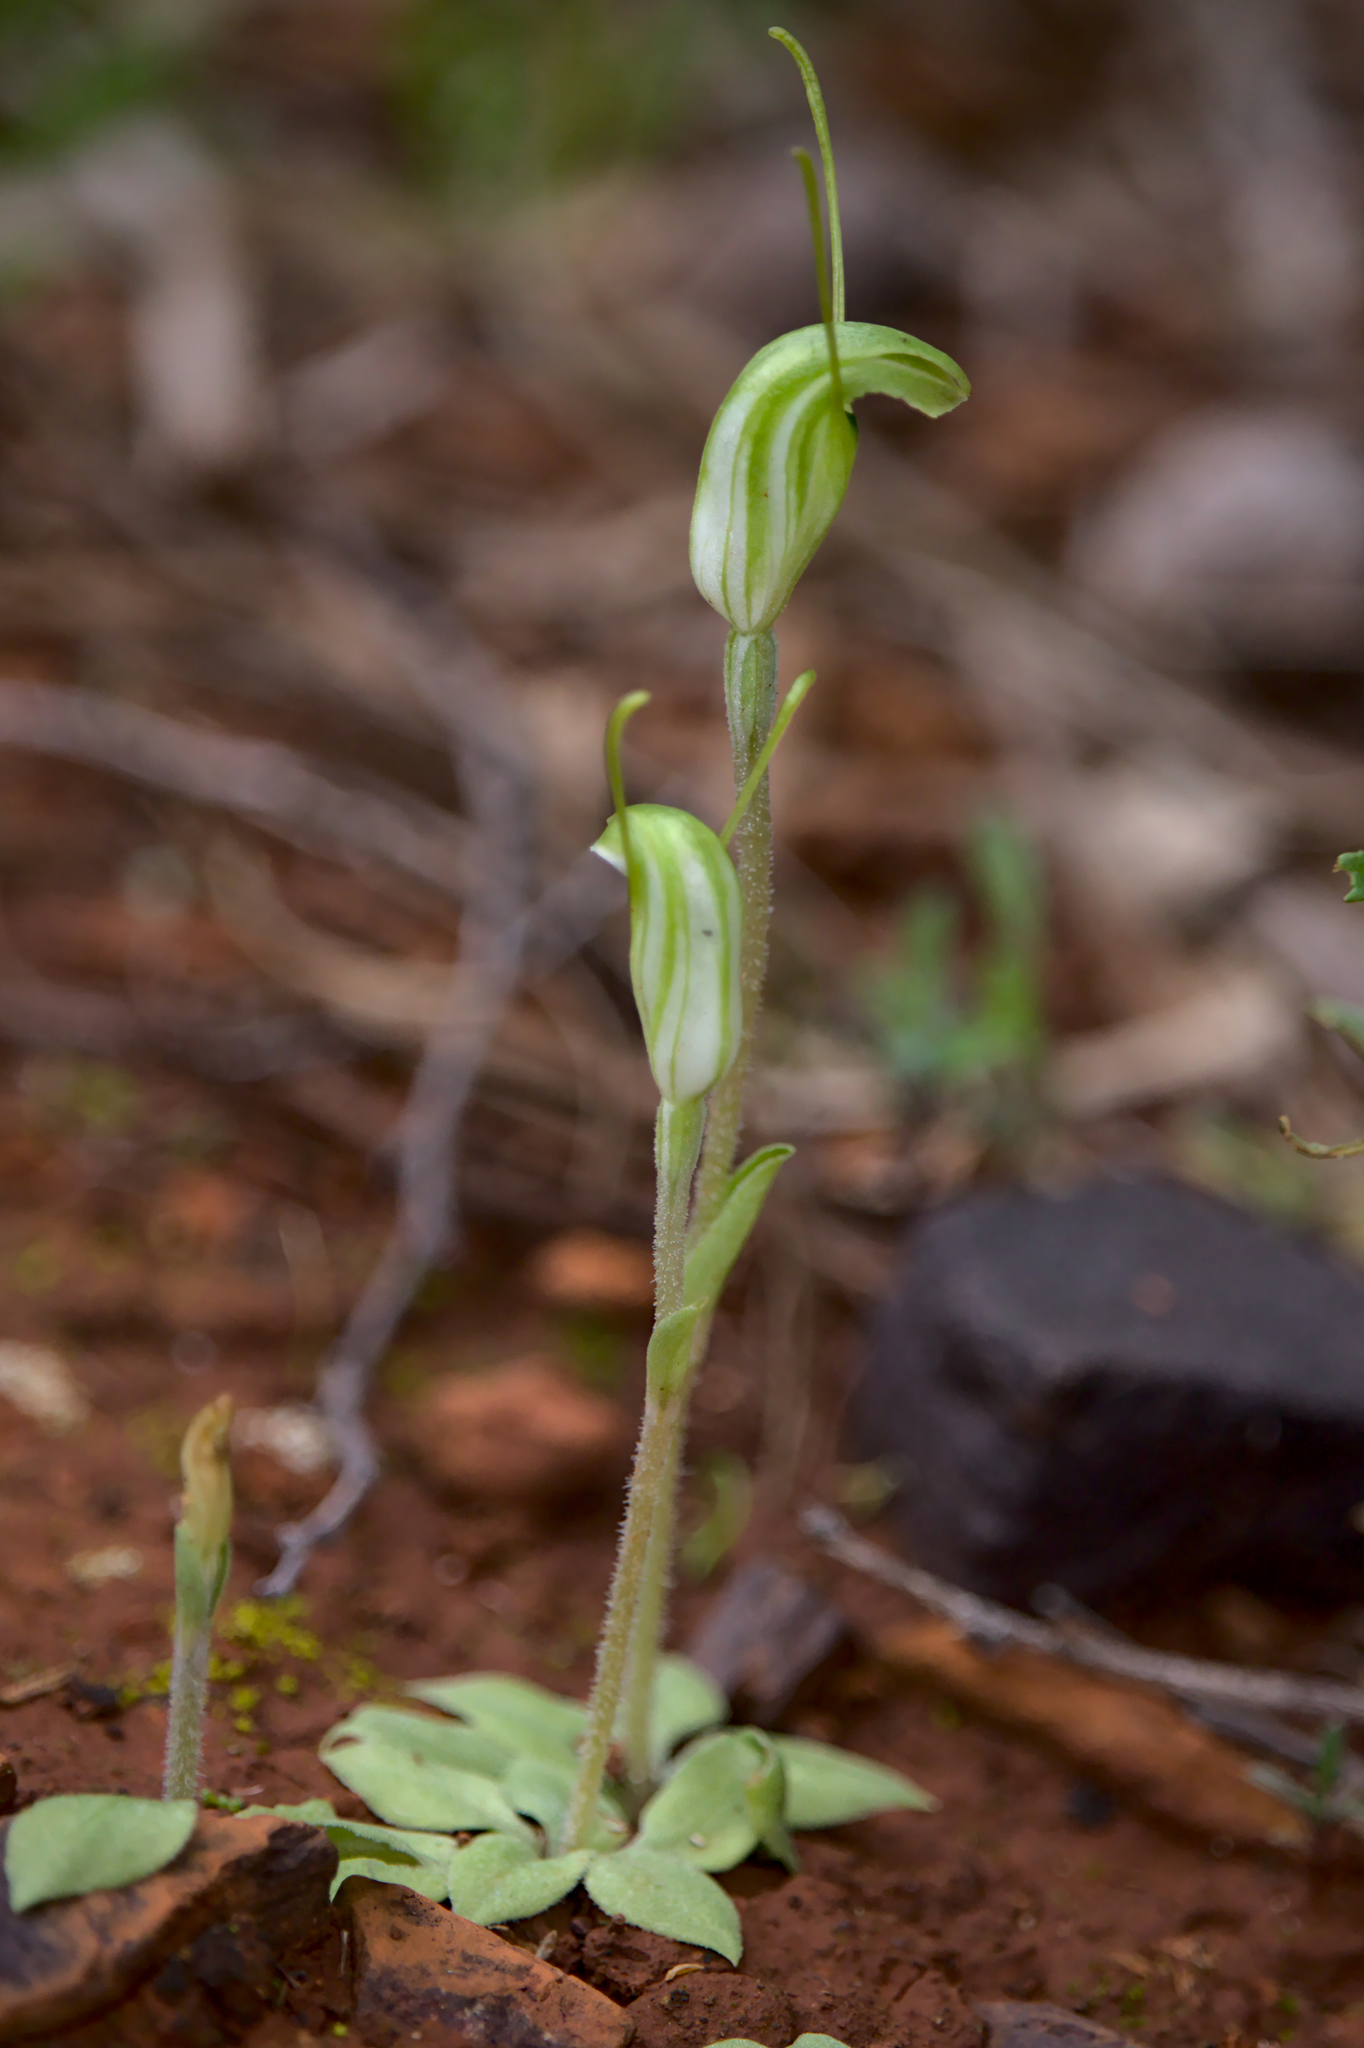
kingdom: Plantae
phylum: Tracheophyta
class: Liliopsida
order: Asparagales
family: Orchidaceae
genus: Pterostylis
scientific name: Pterostylis setulosa
